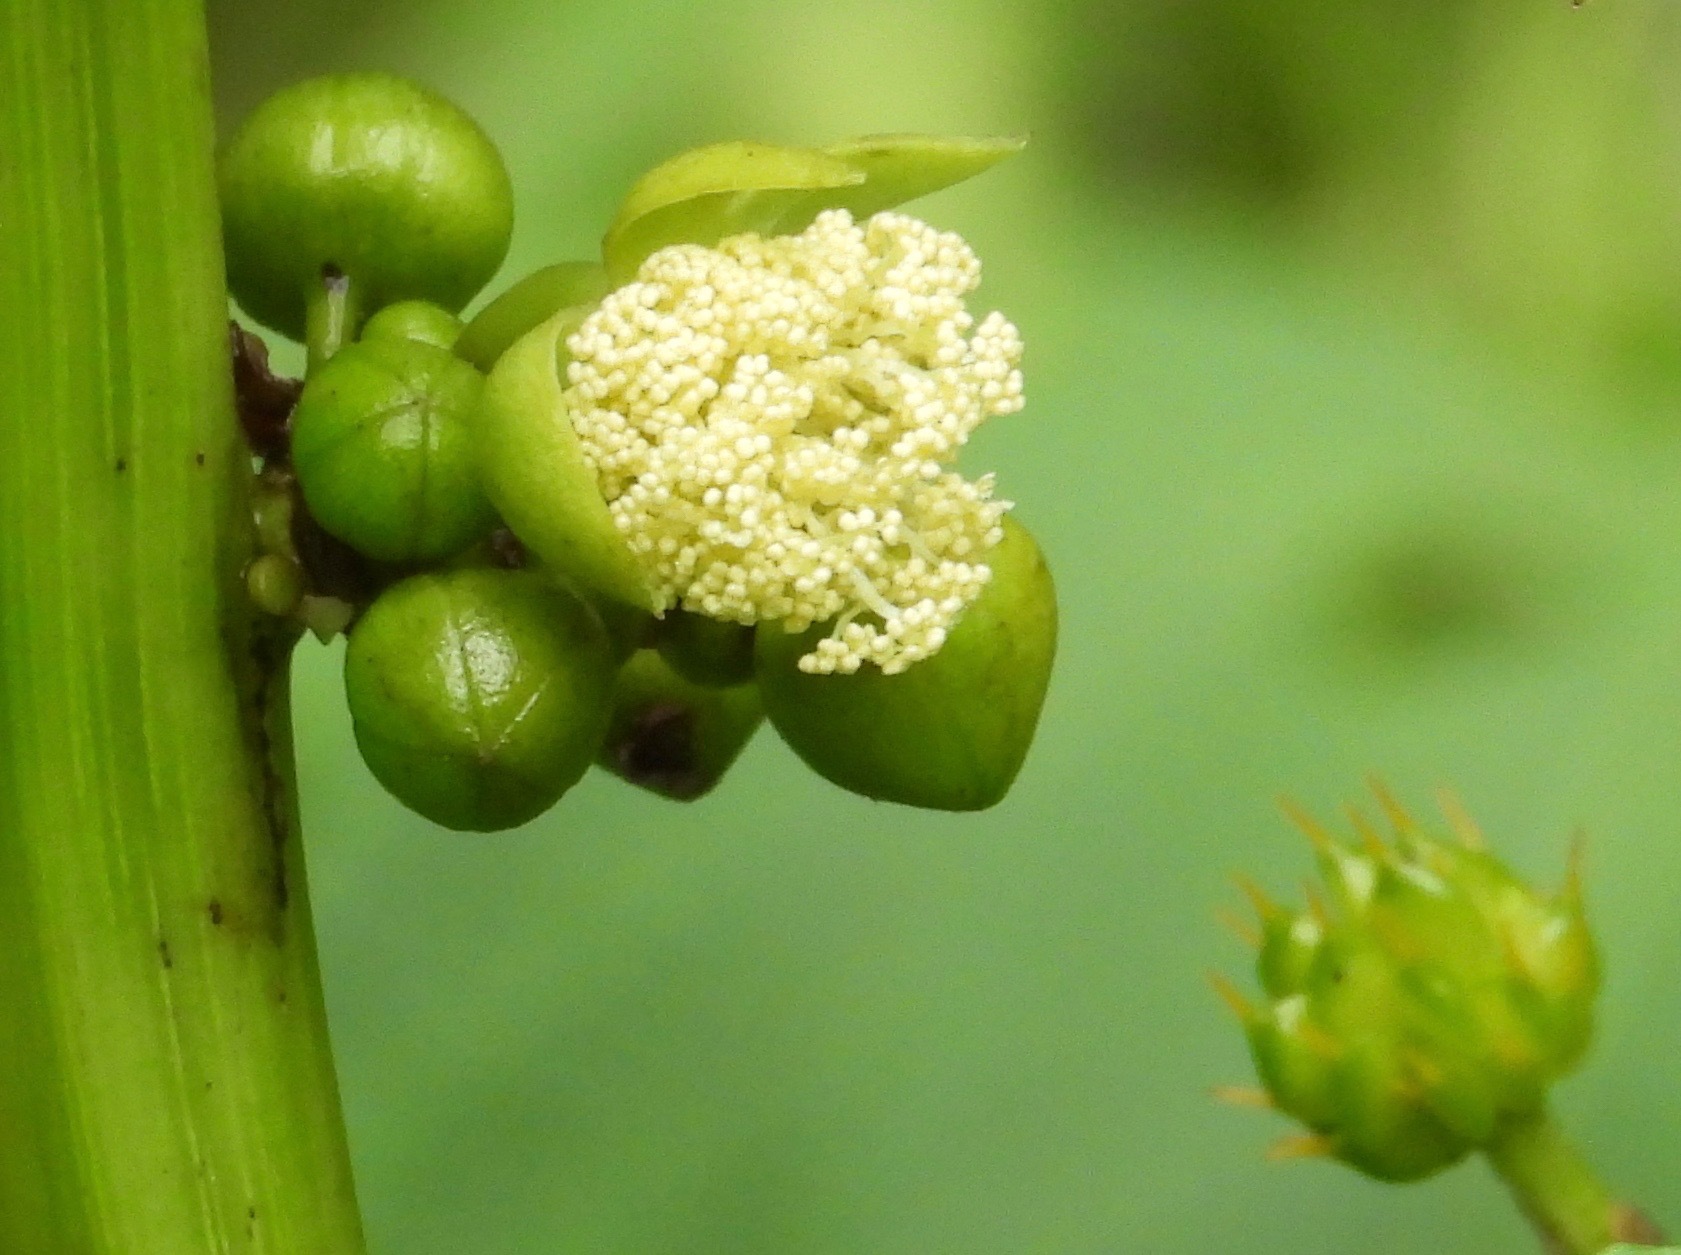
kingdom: Plantae
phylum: Tracheophyta
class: Magnoliopsida
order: Malpighiales
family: Euphorbiaceae
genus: Ricinus
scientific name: Ricinus communis
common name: Castor-oil-plant
